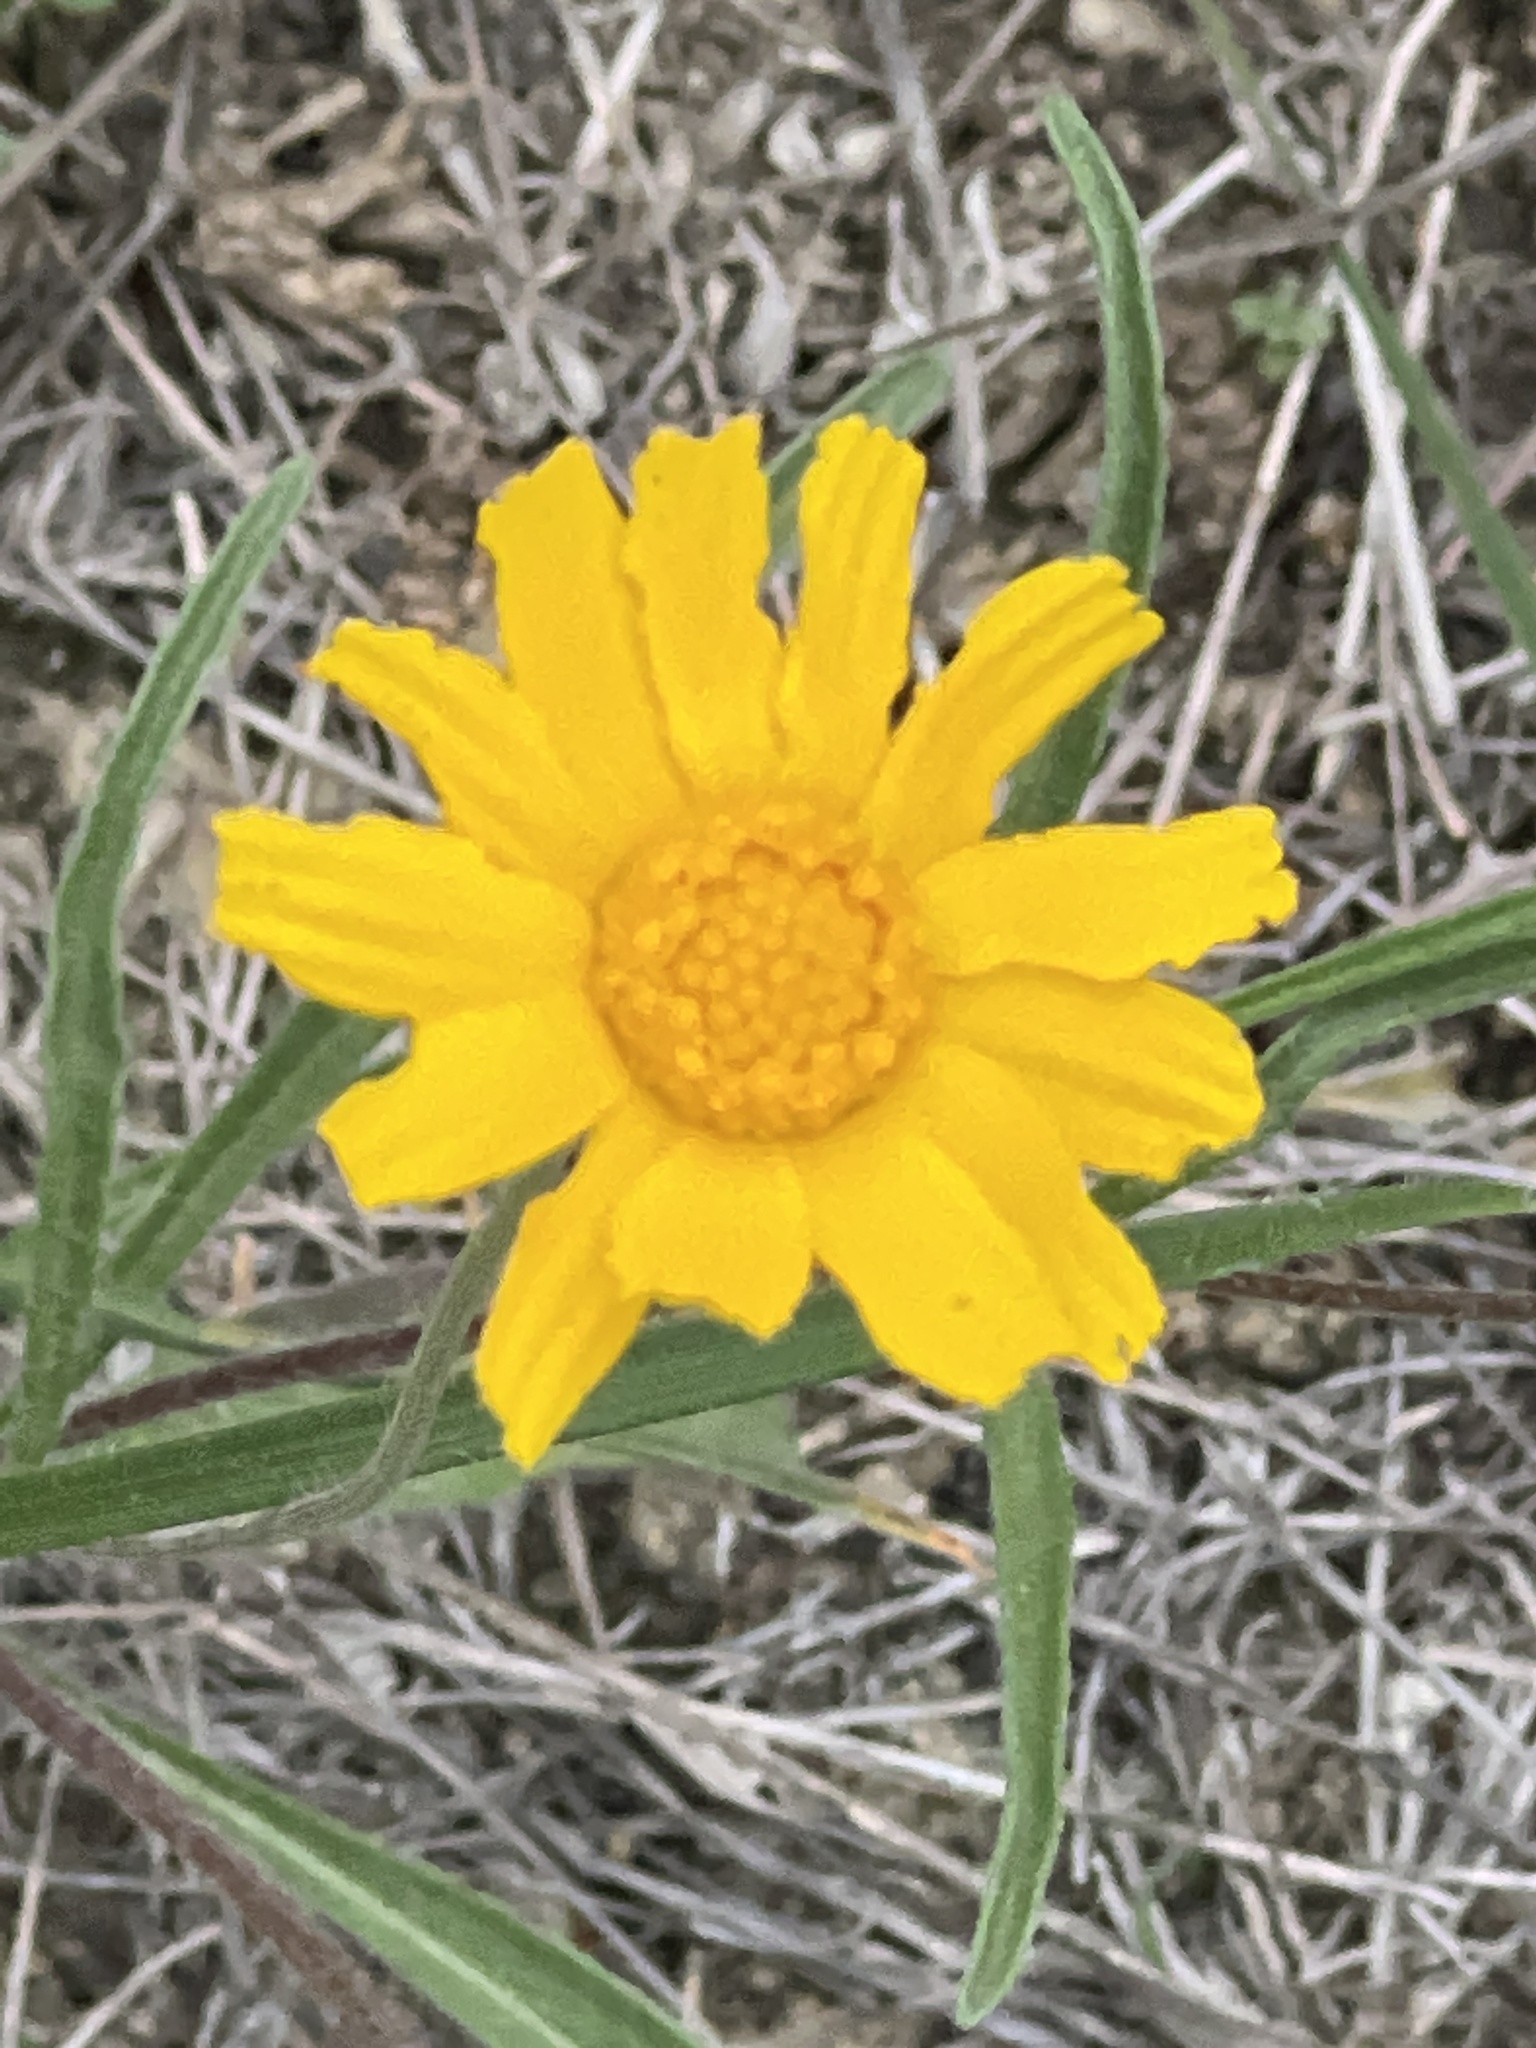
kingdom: Plantae
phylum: Tracheophyta
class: Magnoliopsida
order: Asterales
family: Asteraceae
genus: Tetraneuris
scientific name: Tetraneuris linearifolia
